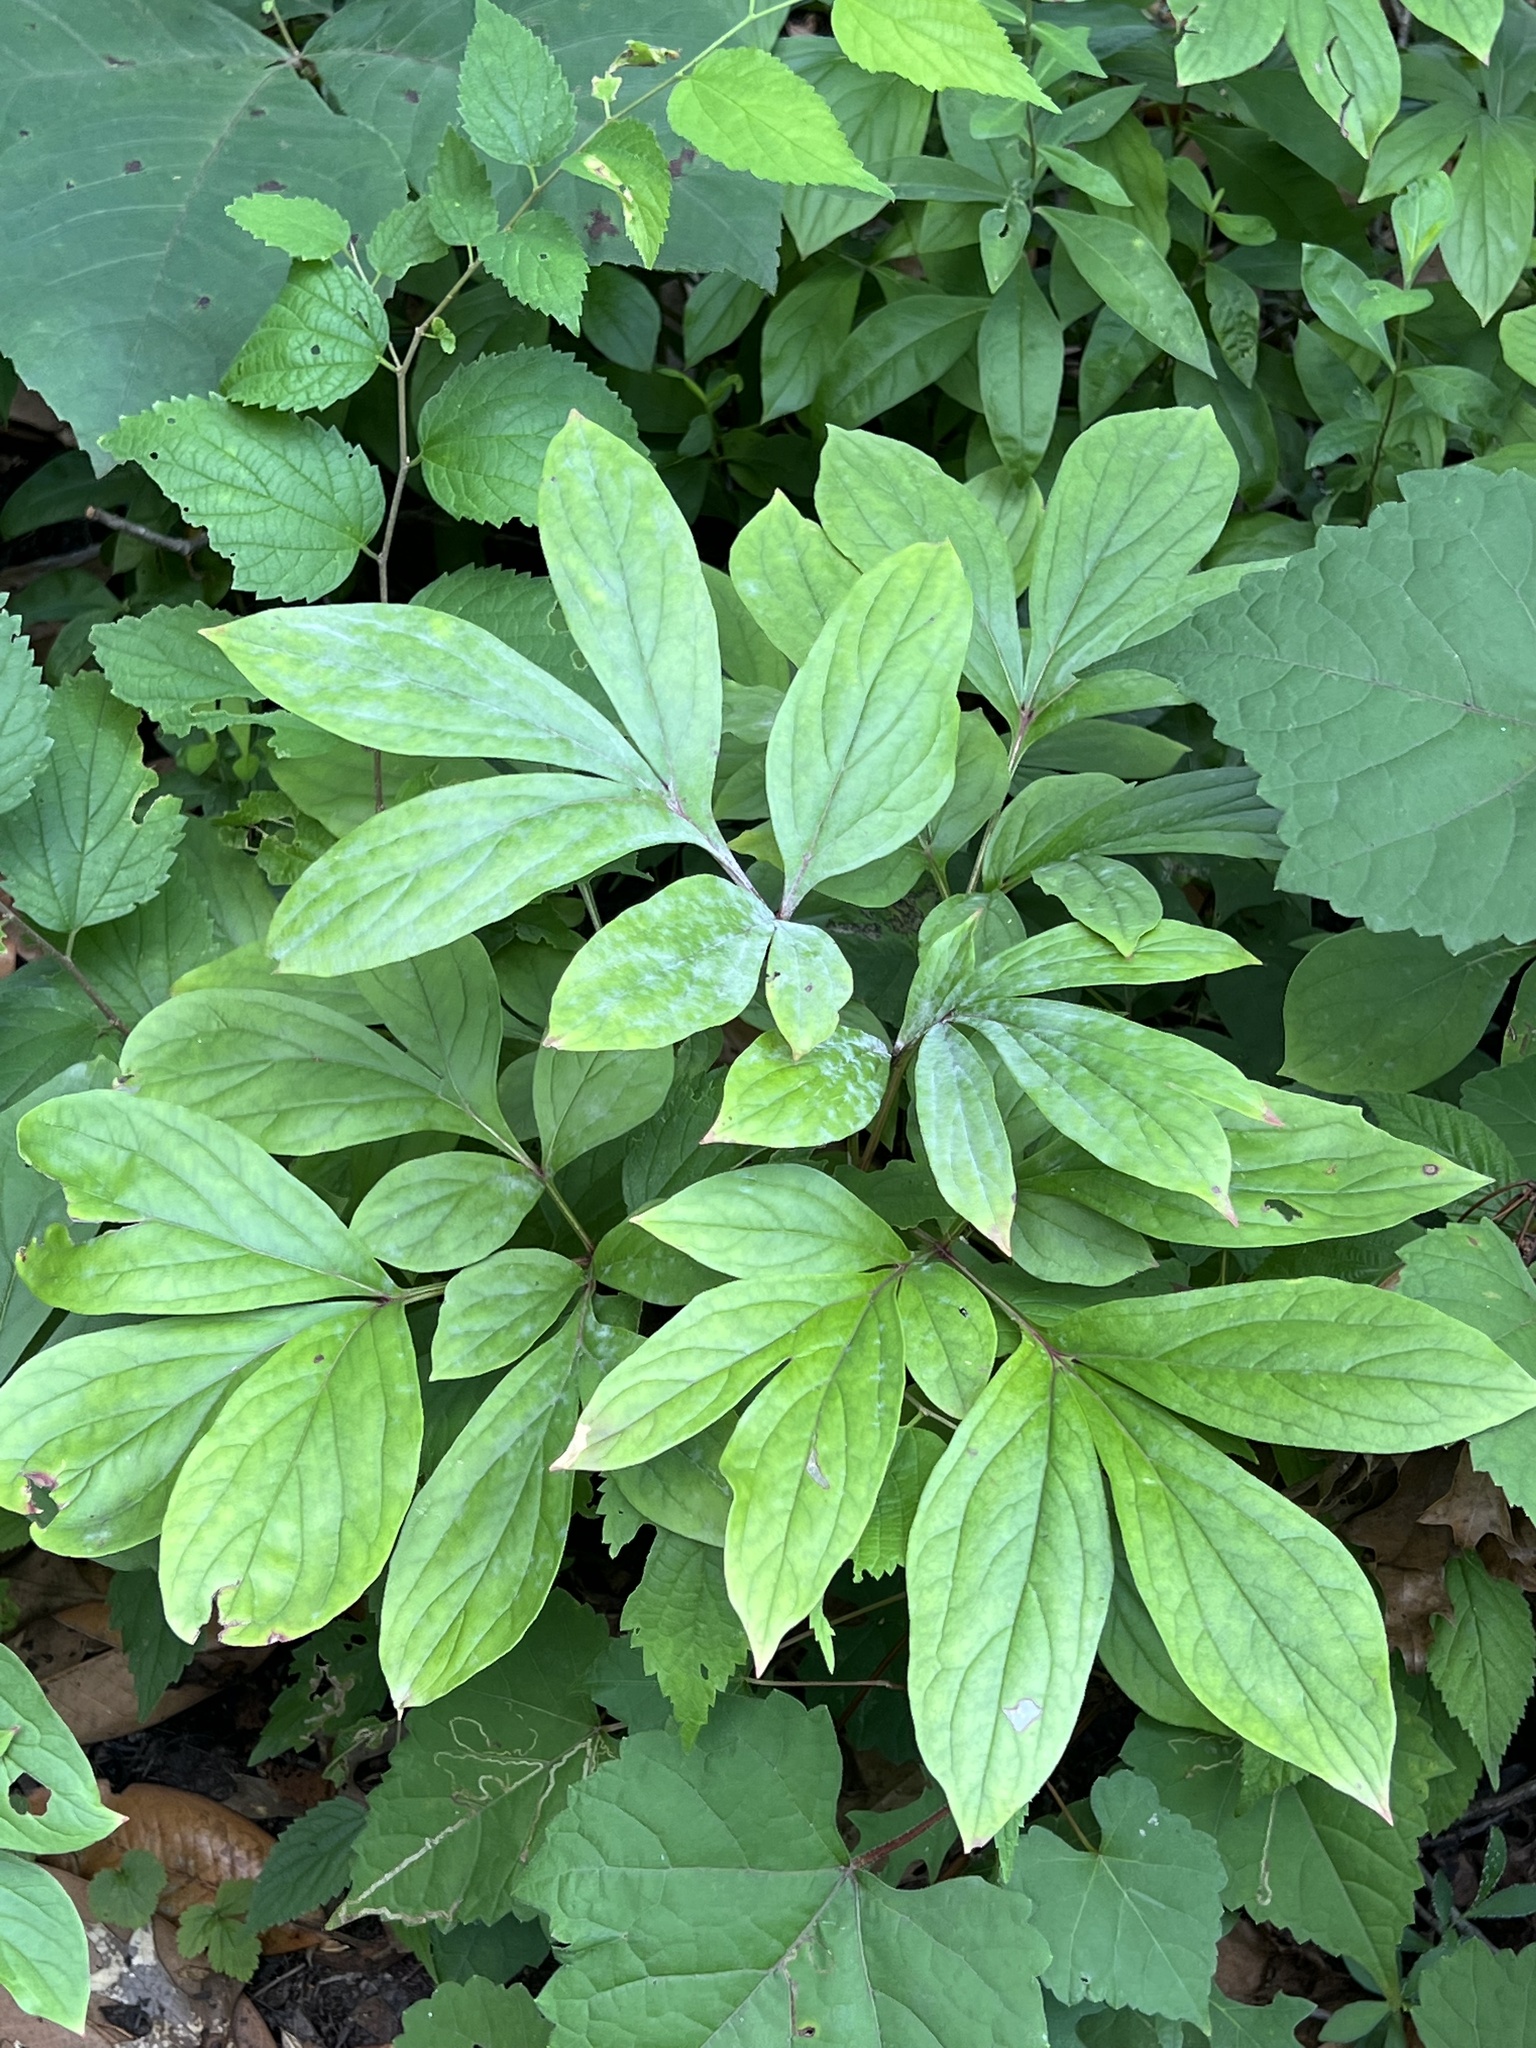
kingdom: Fungi
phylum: Ascomycota
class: Leotiomycetes
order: Helotiales
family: Erysiphaceae
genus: Erysiphe
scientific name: Erysiphe paeoniae
